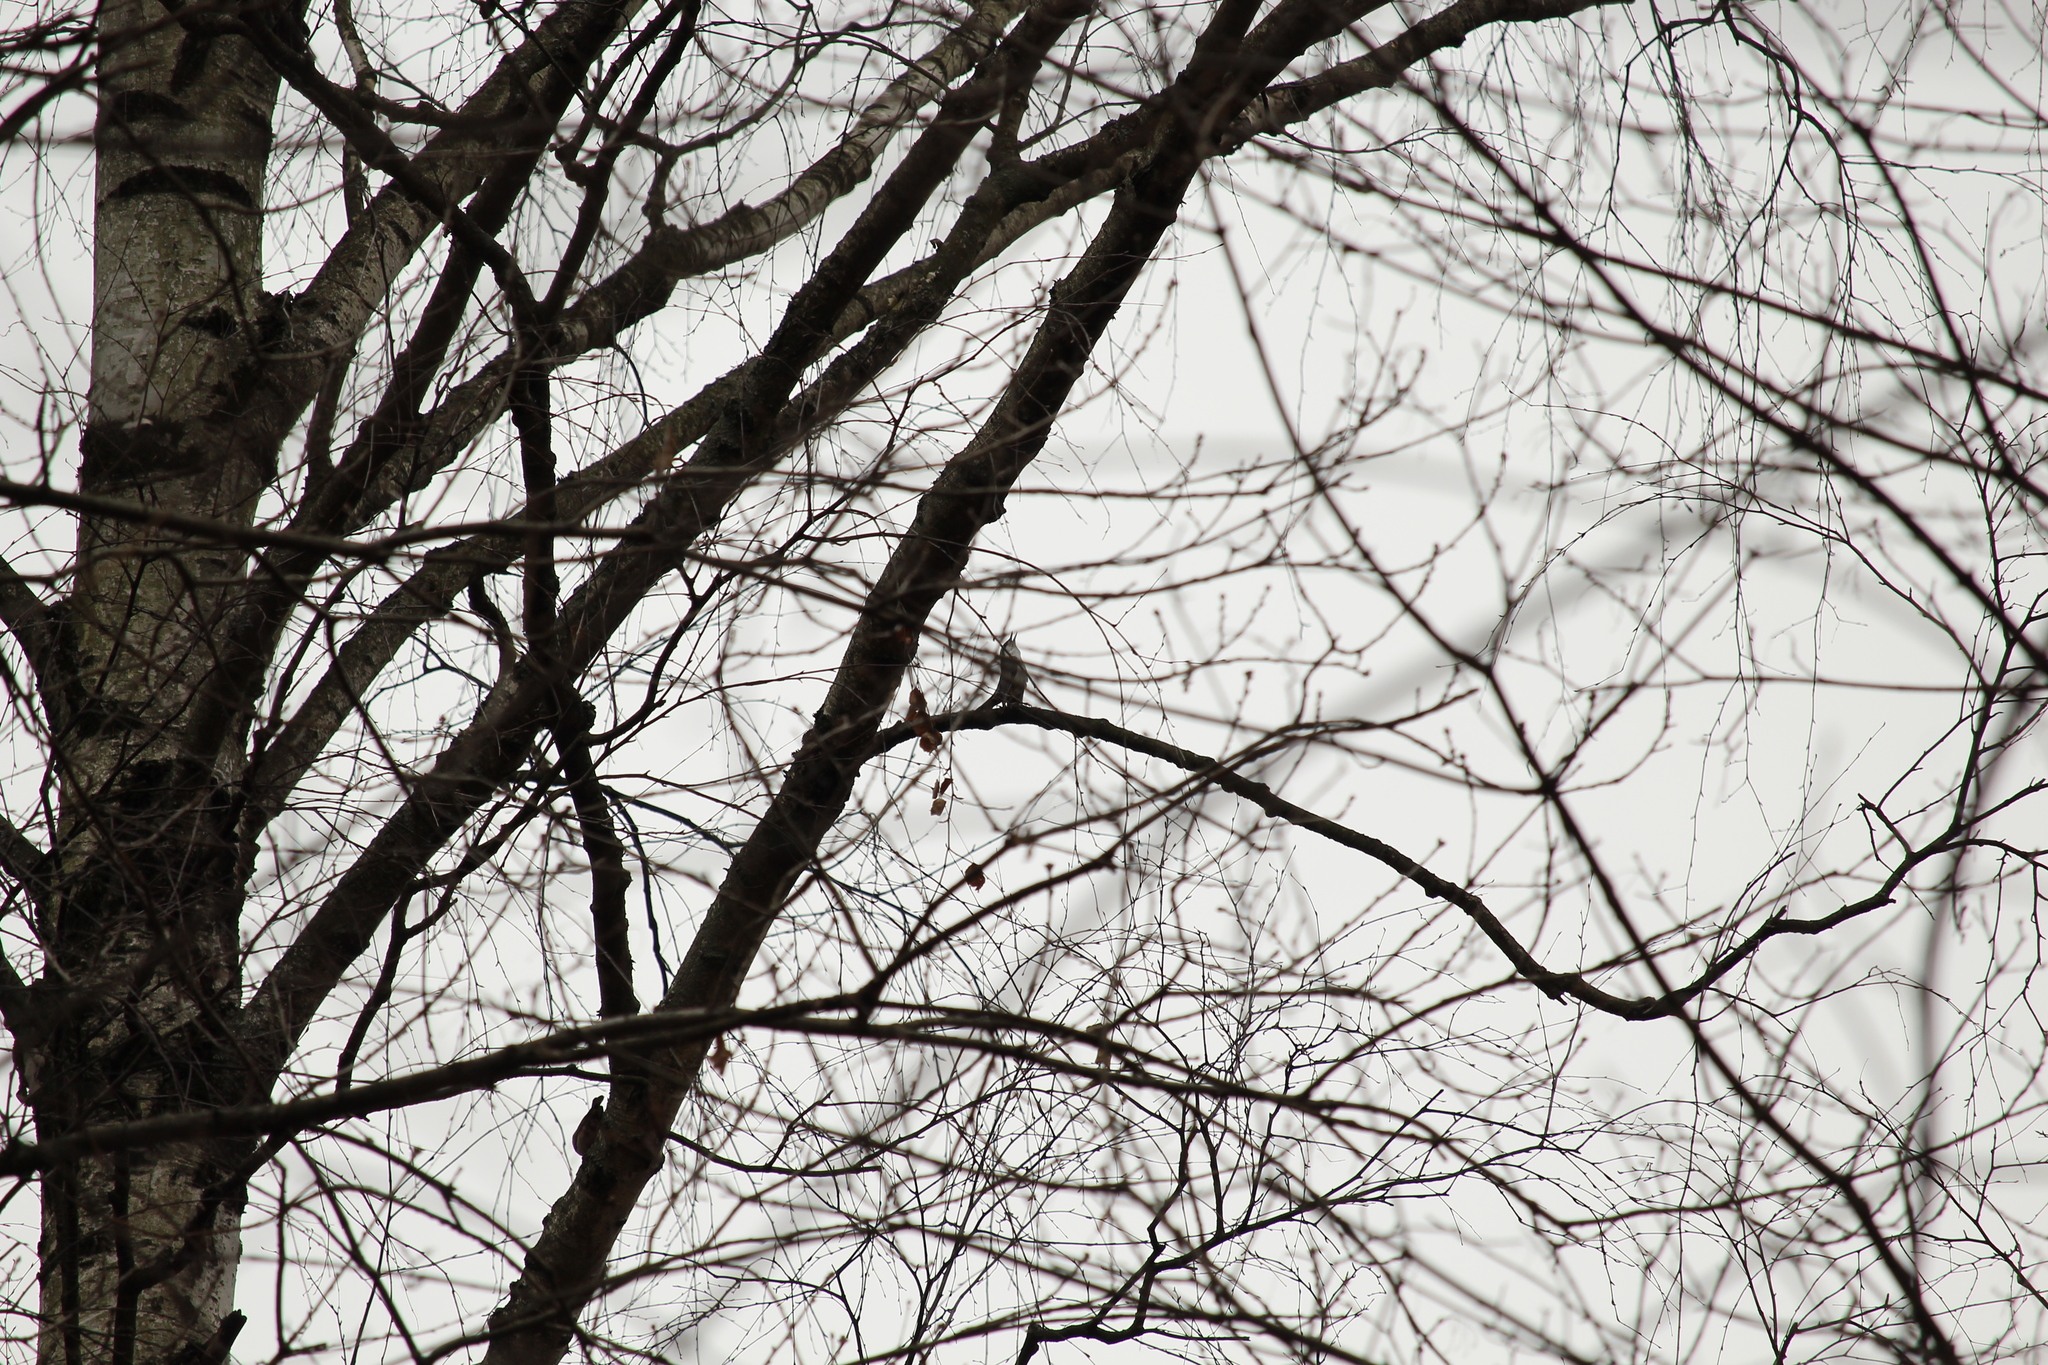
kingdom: Animalia
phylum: Chordata
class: Aves
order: Passeriformes
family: Sittidae
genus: Sitta
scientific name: Sitta europaea
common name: Eurasian nuthatch
